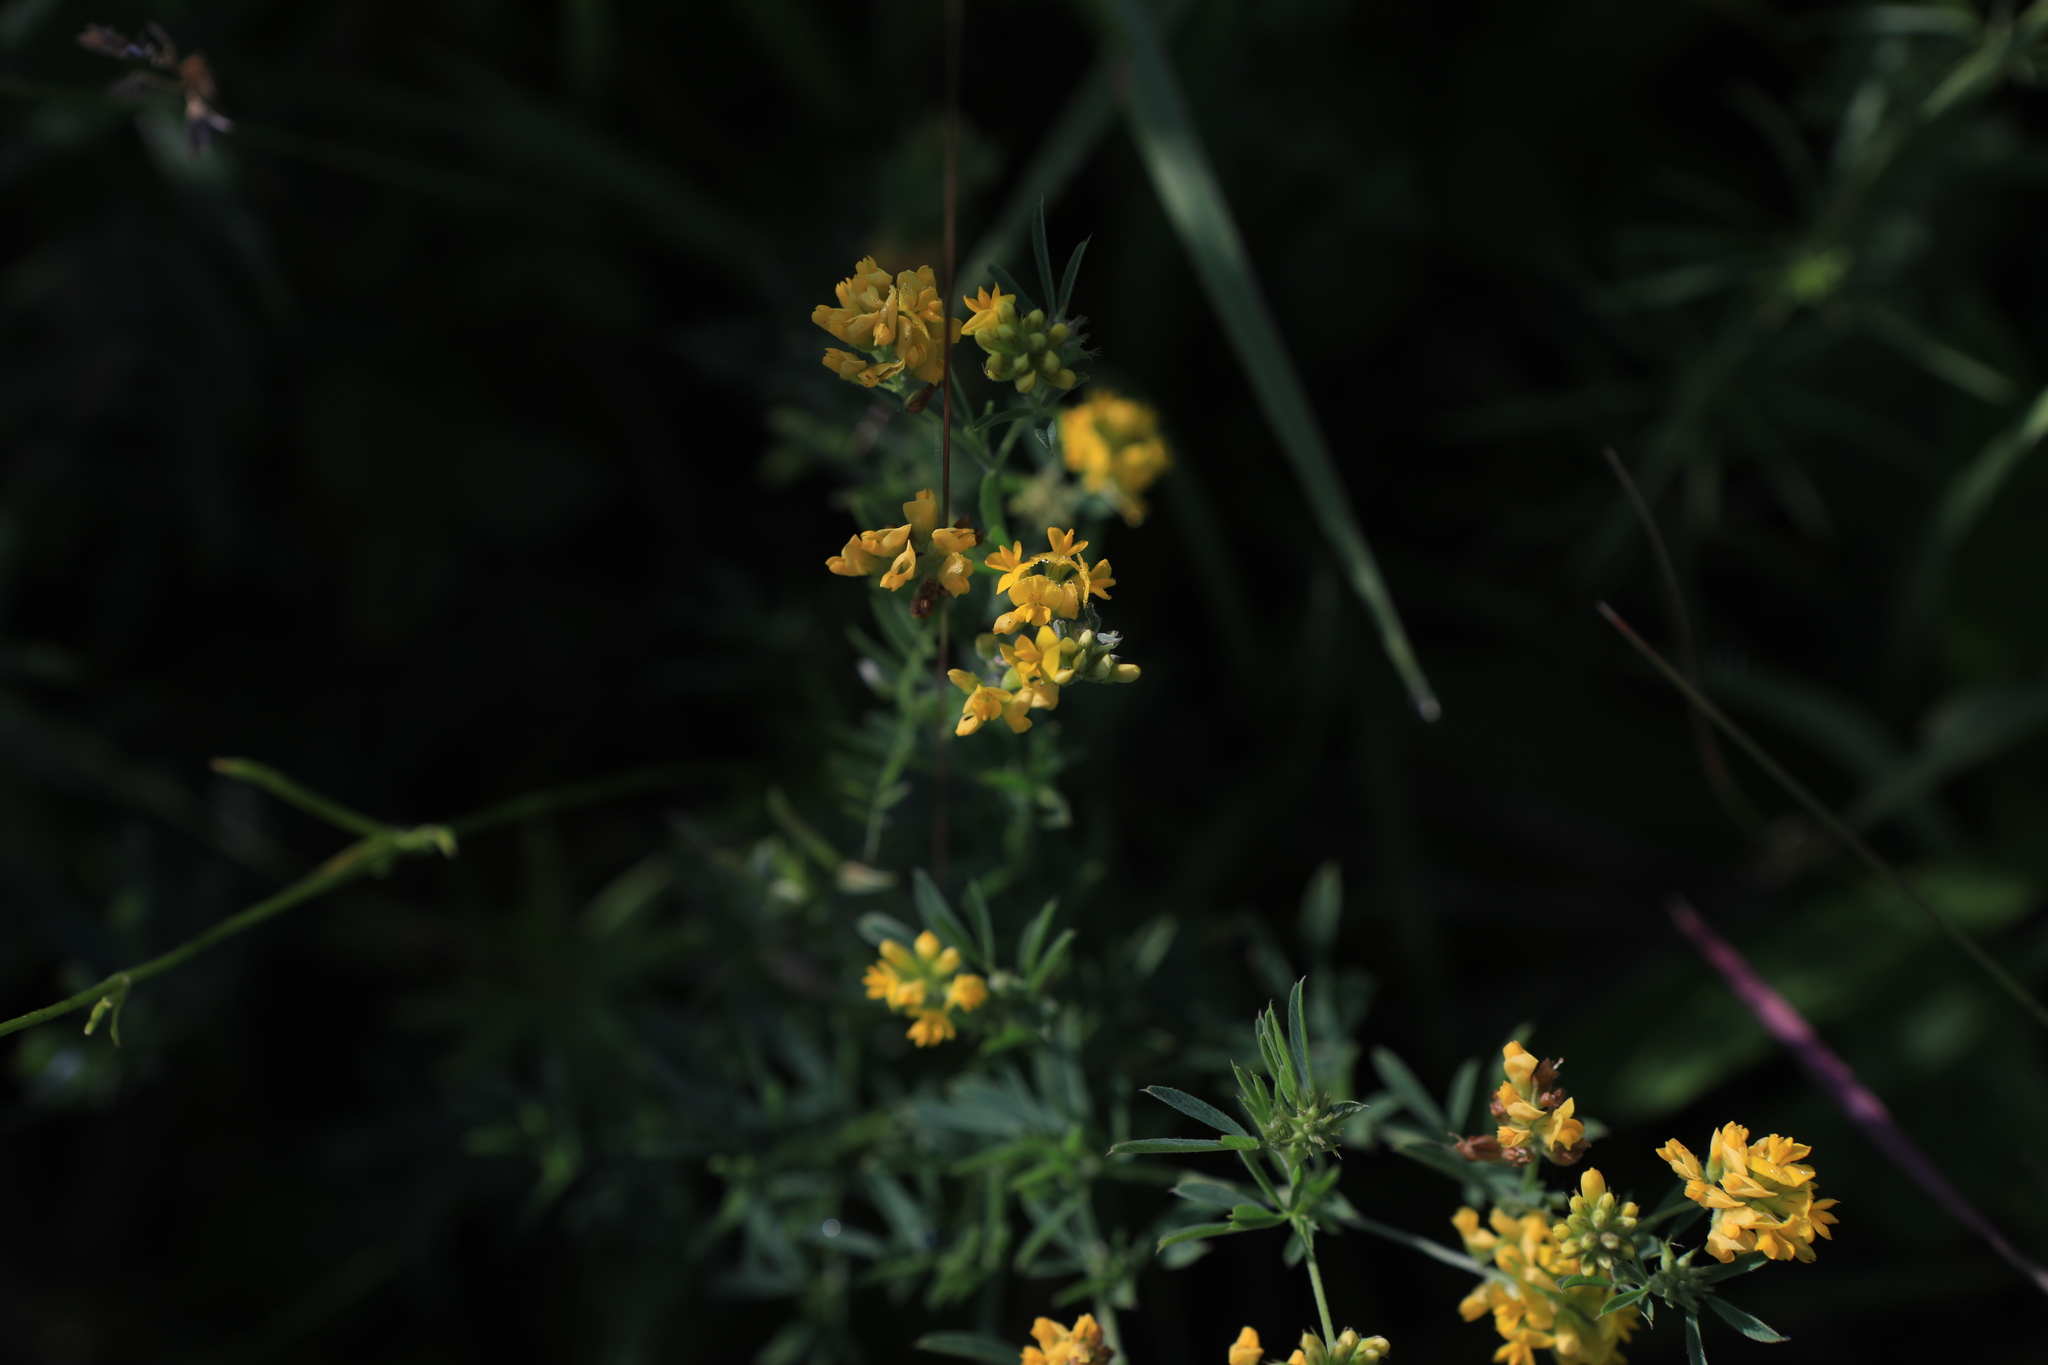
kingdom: Plantae
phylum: Tracheophyta
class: Magnoliopsida
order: Fabales
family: Fabaceae
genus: Medicago
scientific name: Medicago falcata
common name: Sickle medick
